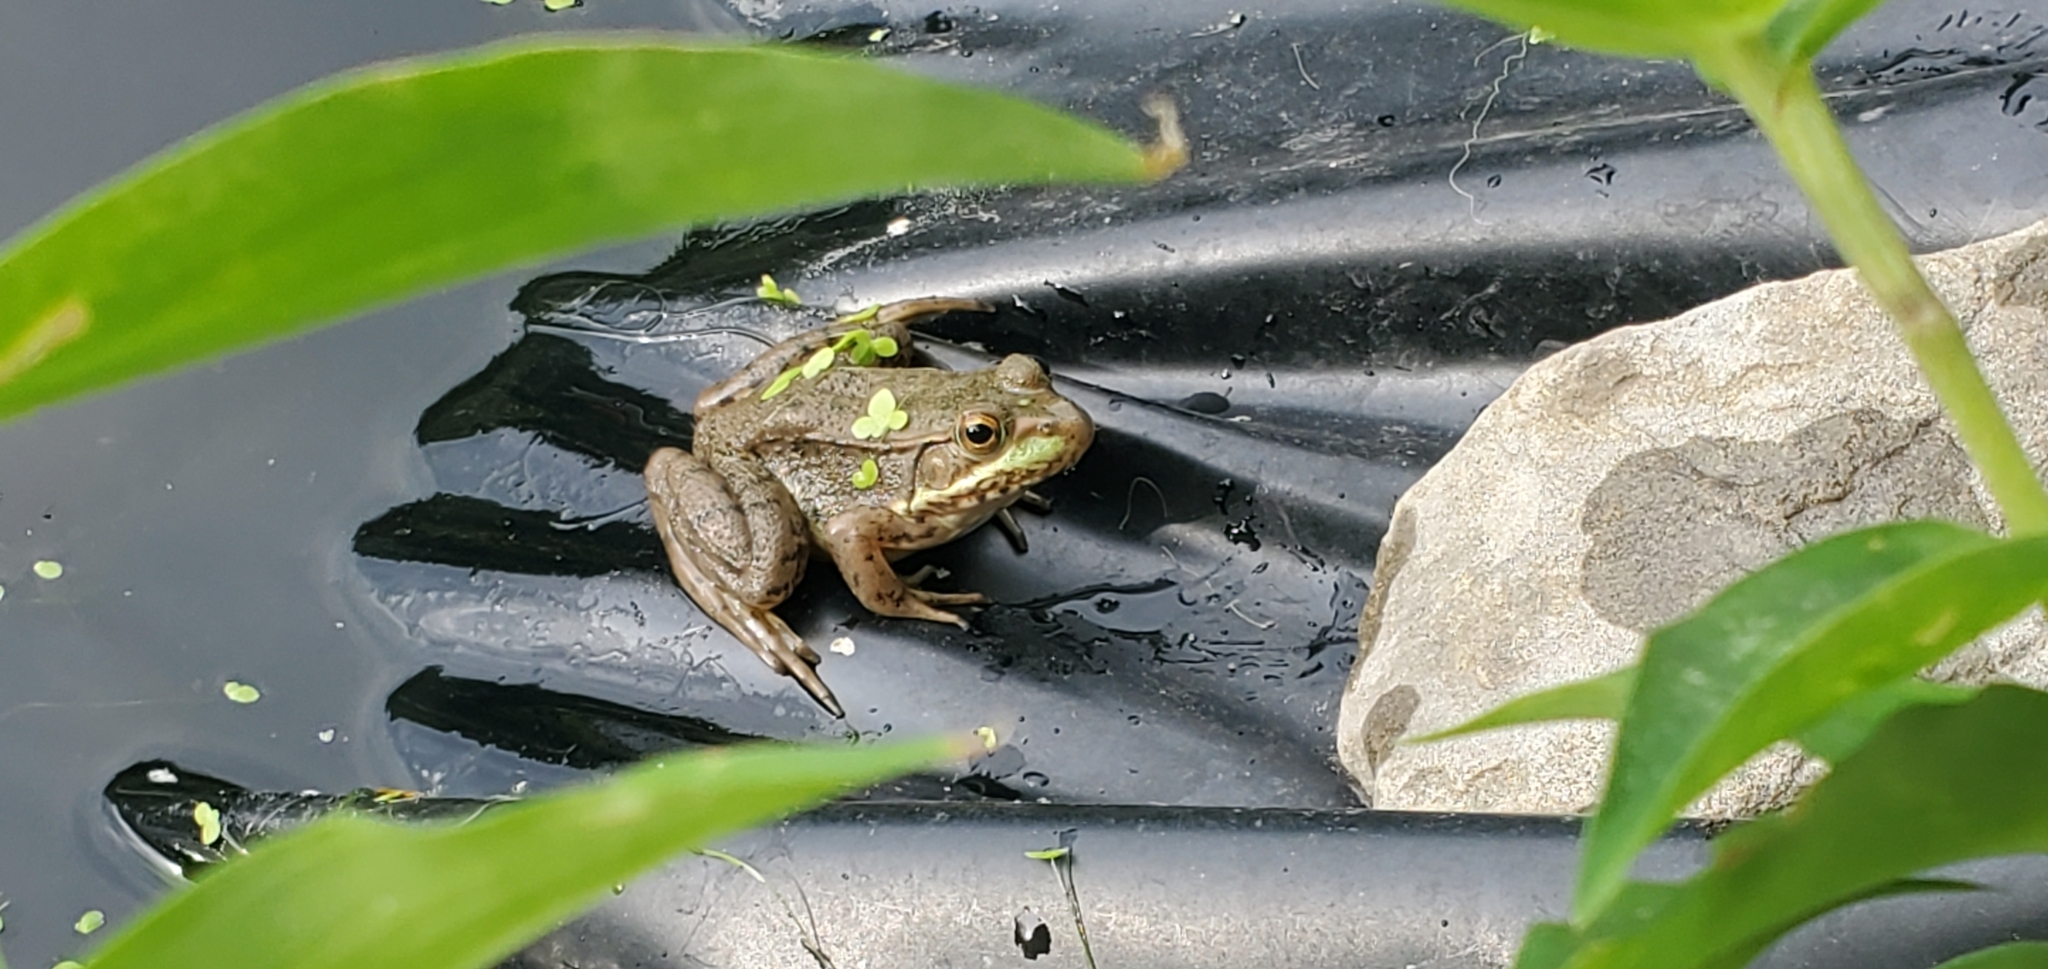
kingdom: Animalia
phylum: Chordata
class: Amphibia
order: Anura
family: Ranidae
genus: Lithobates
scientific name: Lithobates clamitans
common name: Green frog
